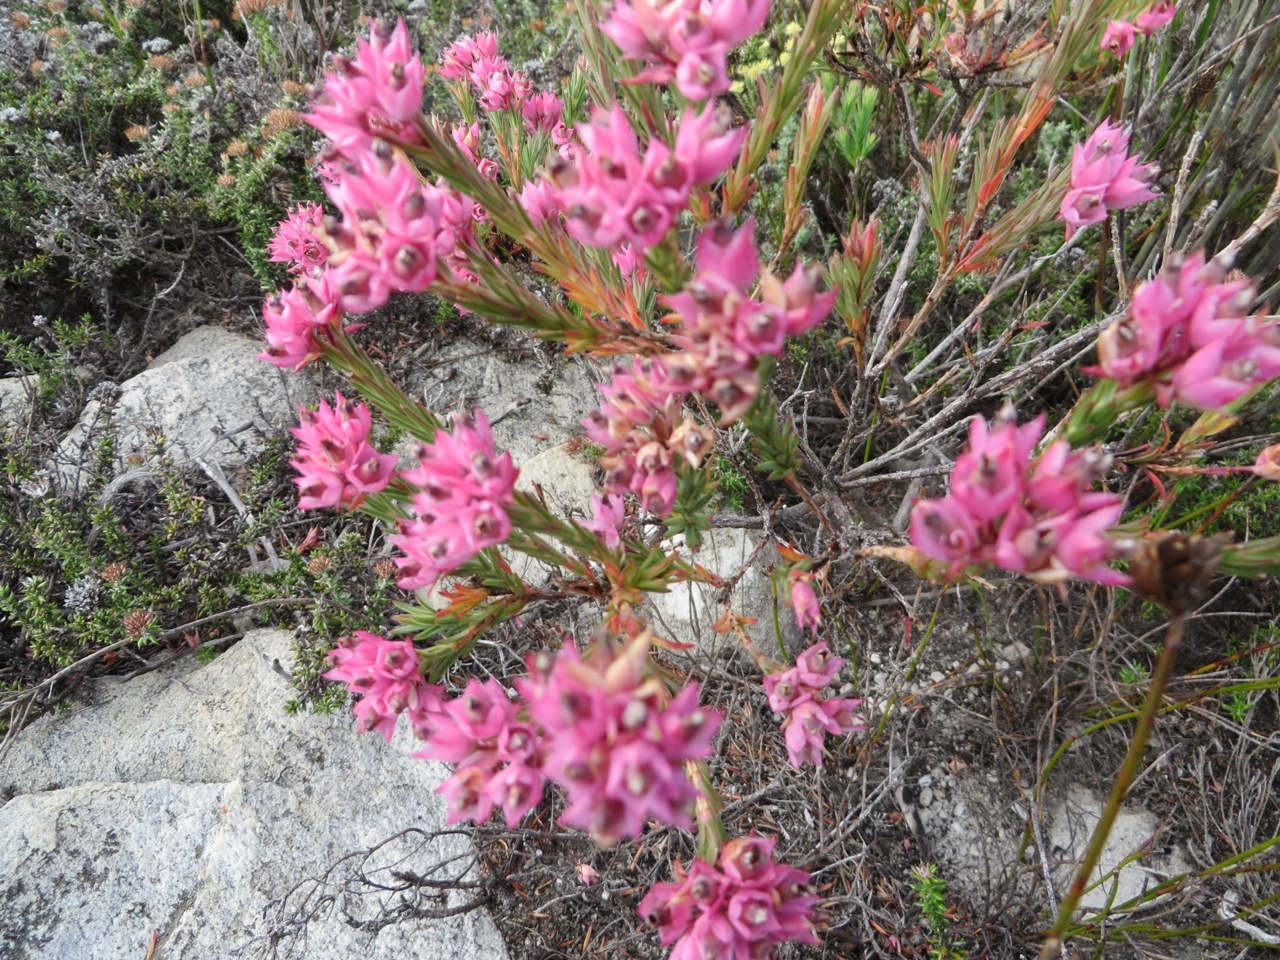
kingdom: Plantae
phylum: Tracheophyta
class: Magnoliopsida
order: Ericales
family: Ericaceae
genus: Erica
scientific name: Erica taxifolia
